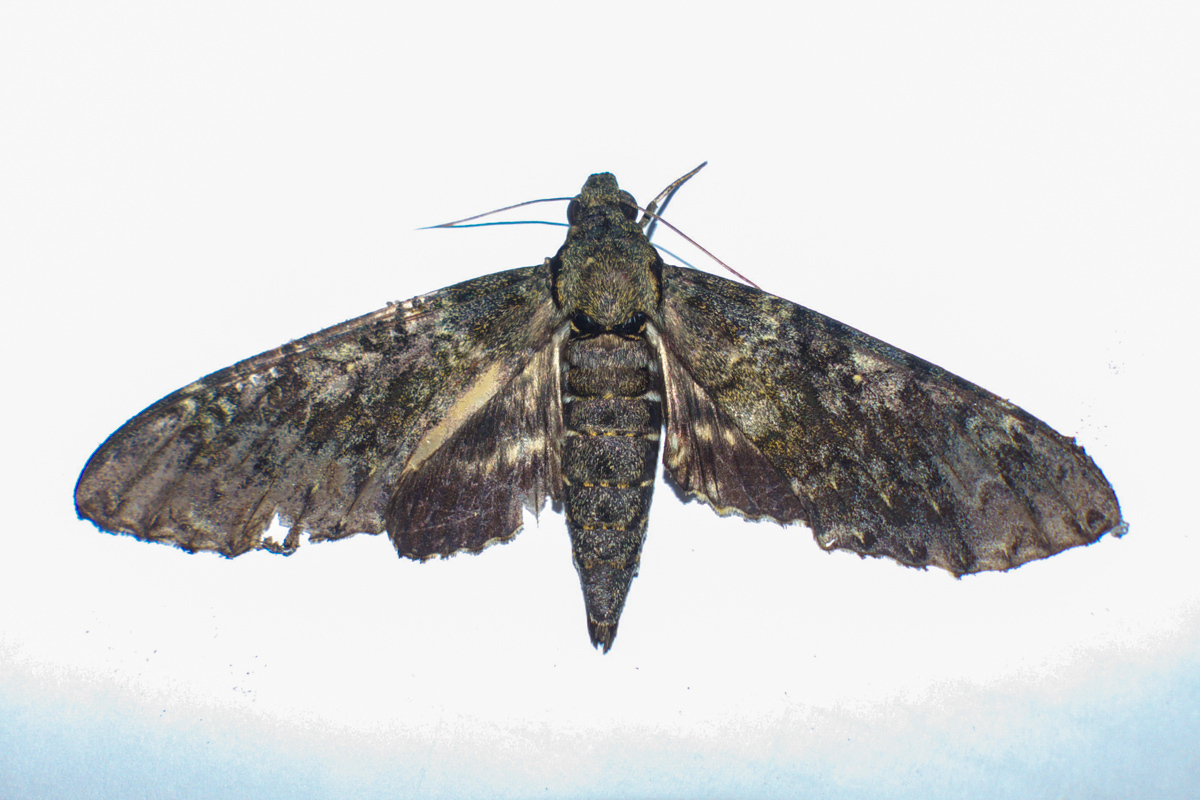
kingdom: Animalia
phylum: Arthropoda
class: Insecta
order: Lepidoptera
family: Sphingidae
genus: Meganoton
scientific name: Meganoton nyctiphanes
